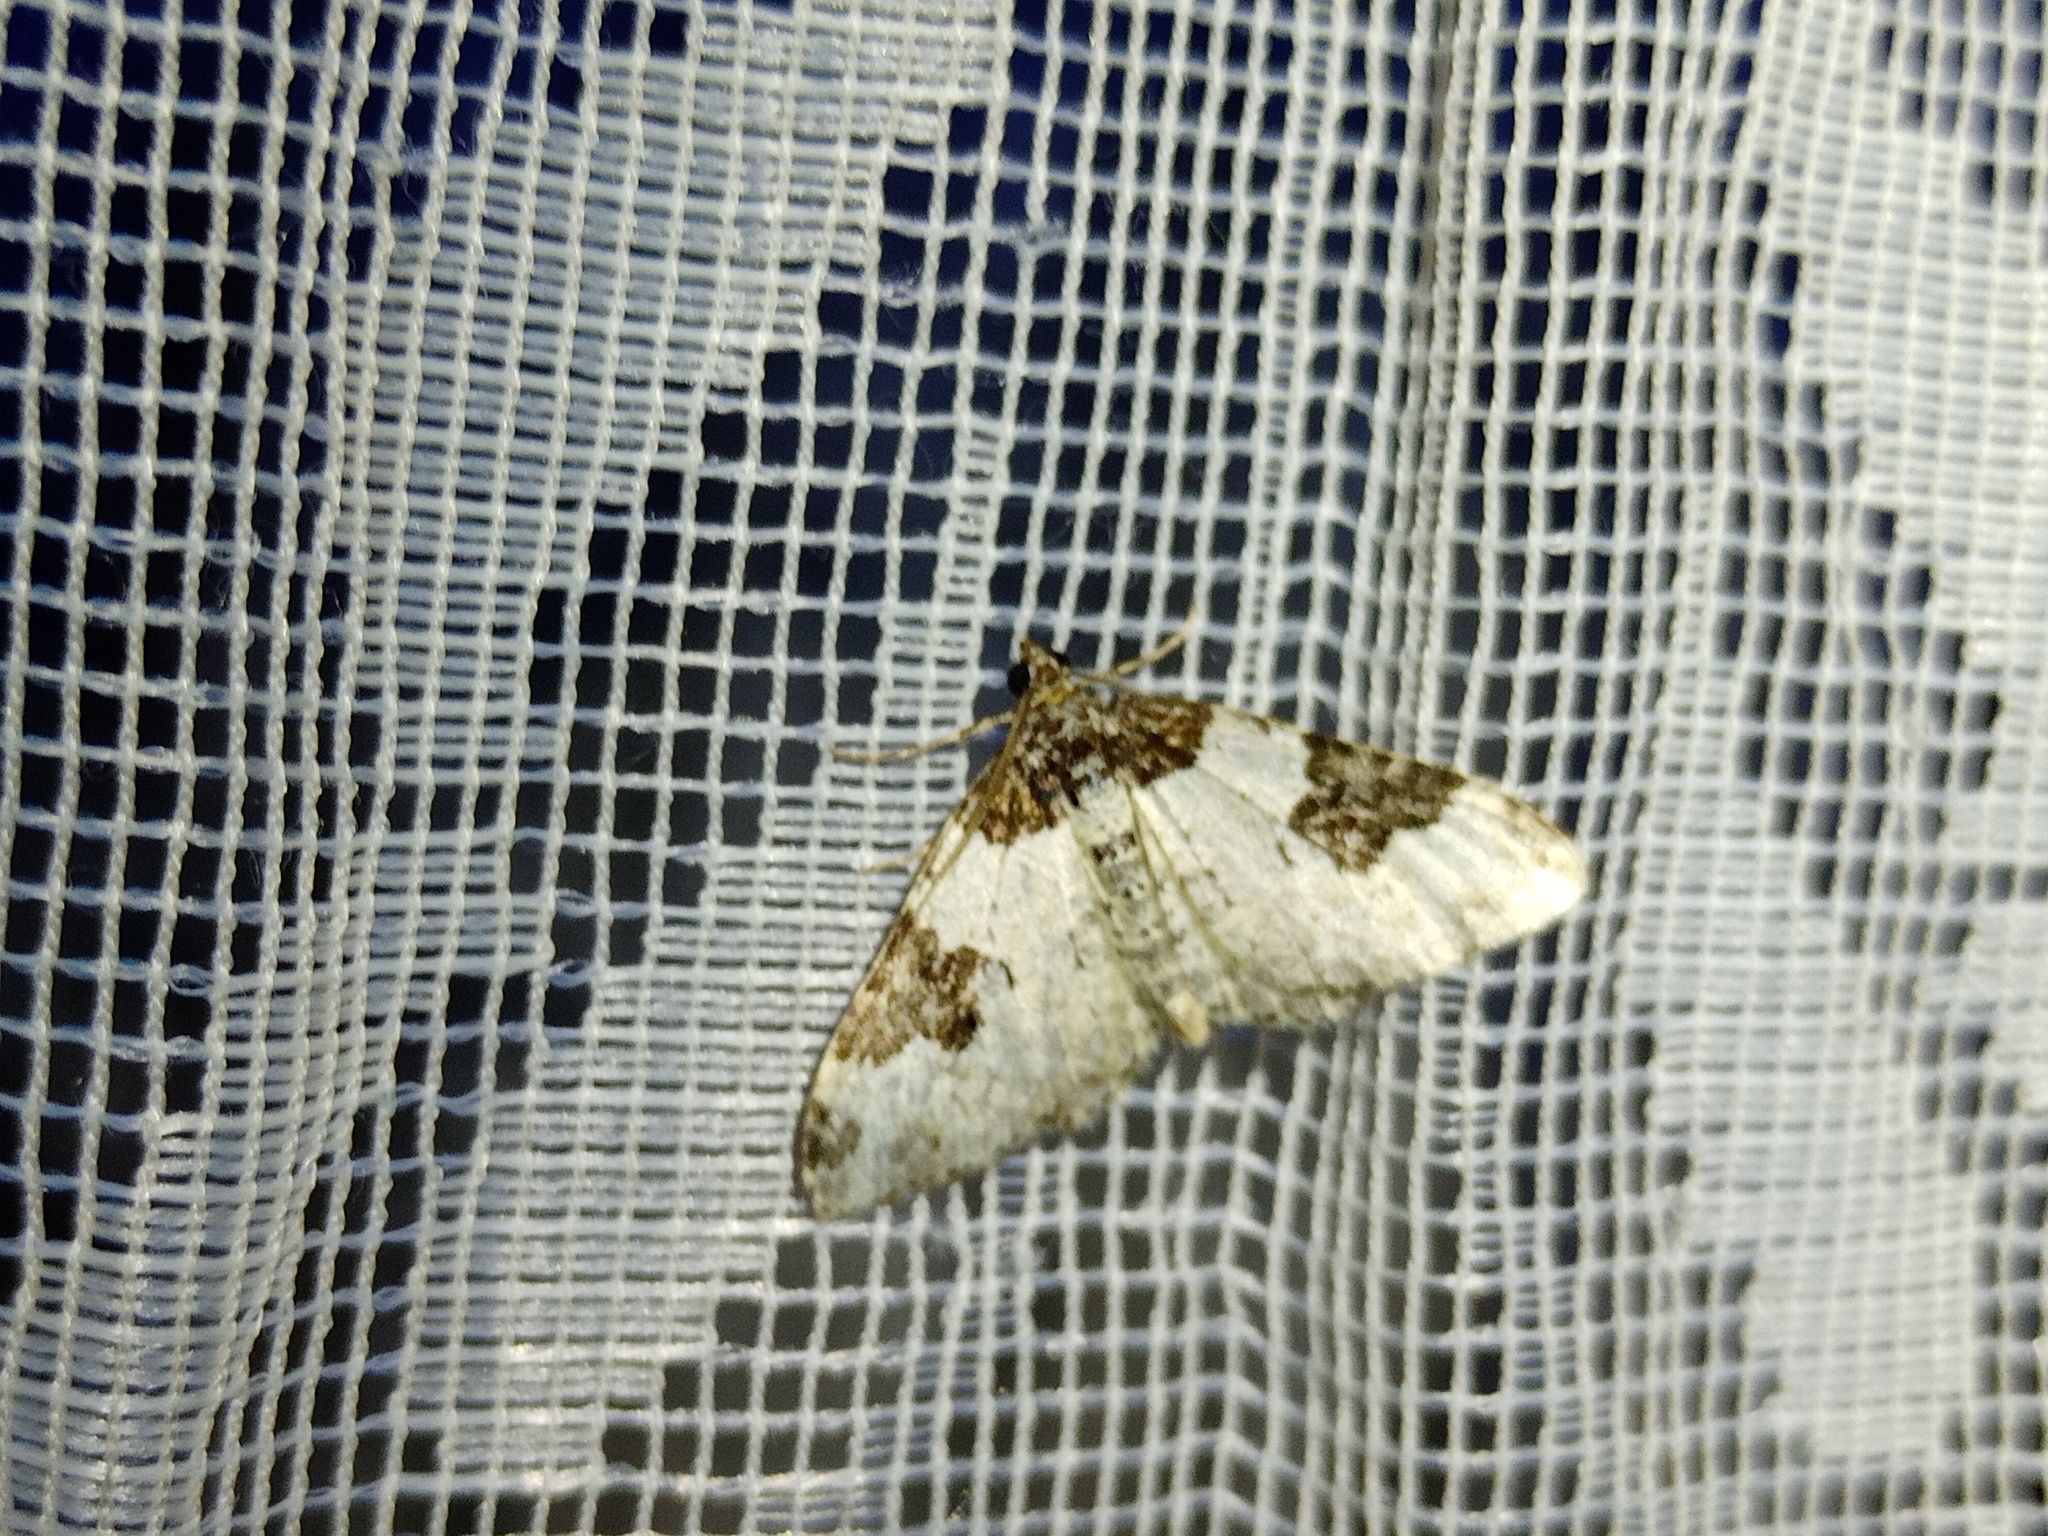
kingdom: Animalia
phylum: Arthropoda
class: Insecta
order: Lepidoptera
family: Geometridae
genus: Xanthorhoe
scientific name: Xanthorhoe fluctuata
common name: Garden carpet
